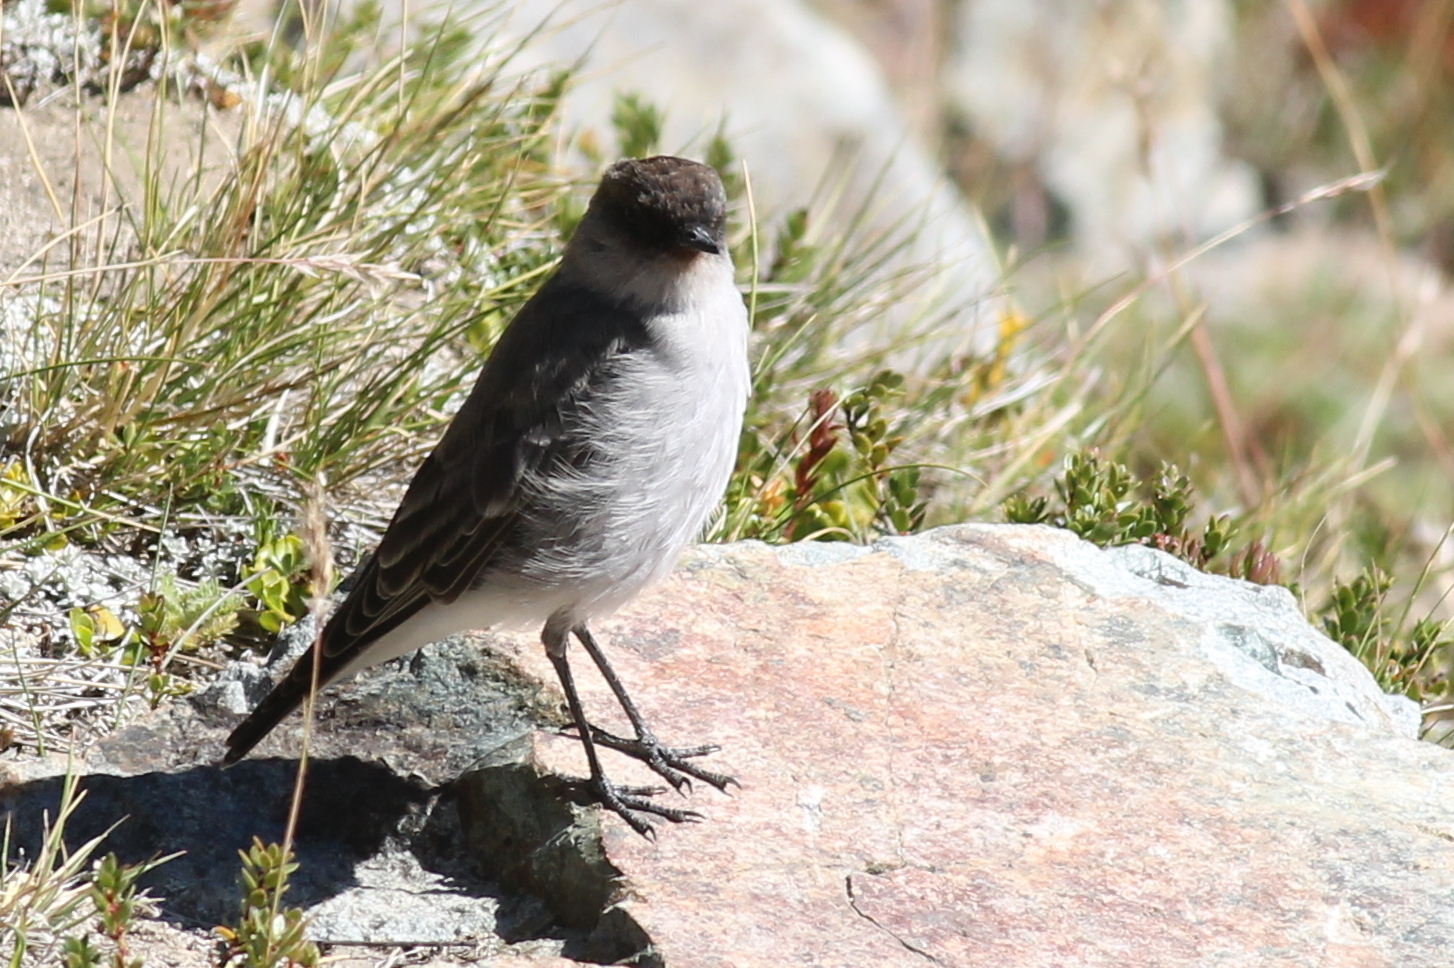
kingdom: Animalia
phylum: Chordata
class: Aves
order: Passeriformes
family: Tyrannidae
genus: Muscisaxicola
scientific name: Muscisaxicola maclovianus
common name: Dark-faced ground tyrant
